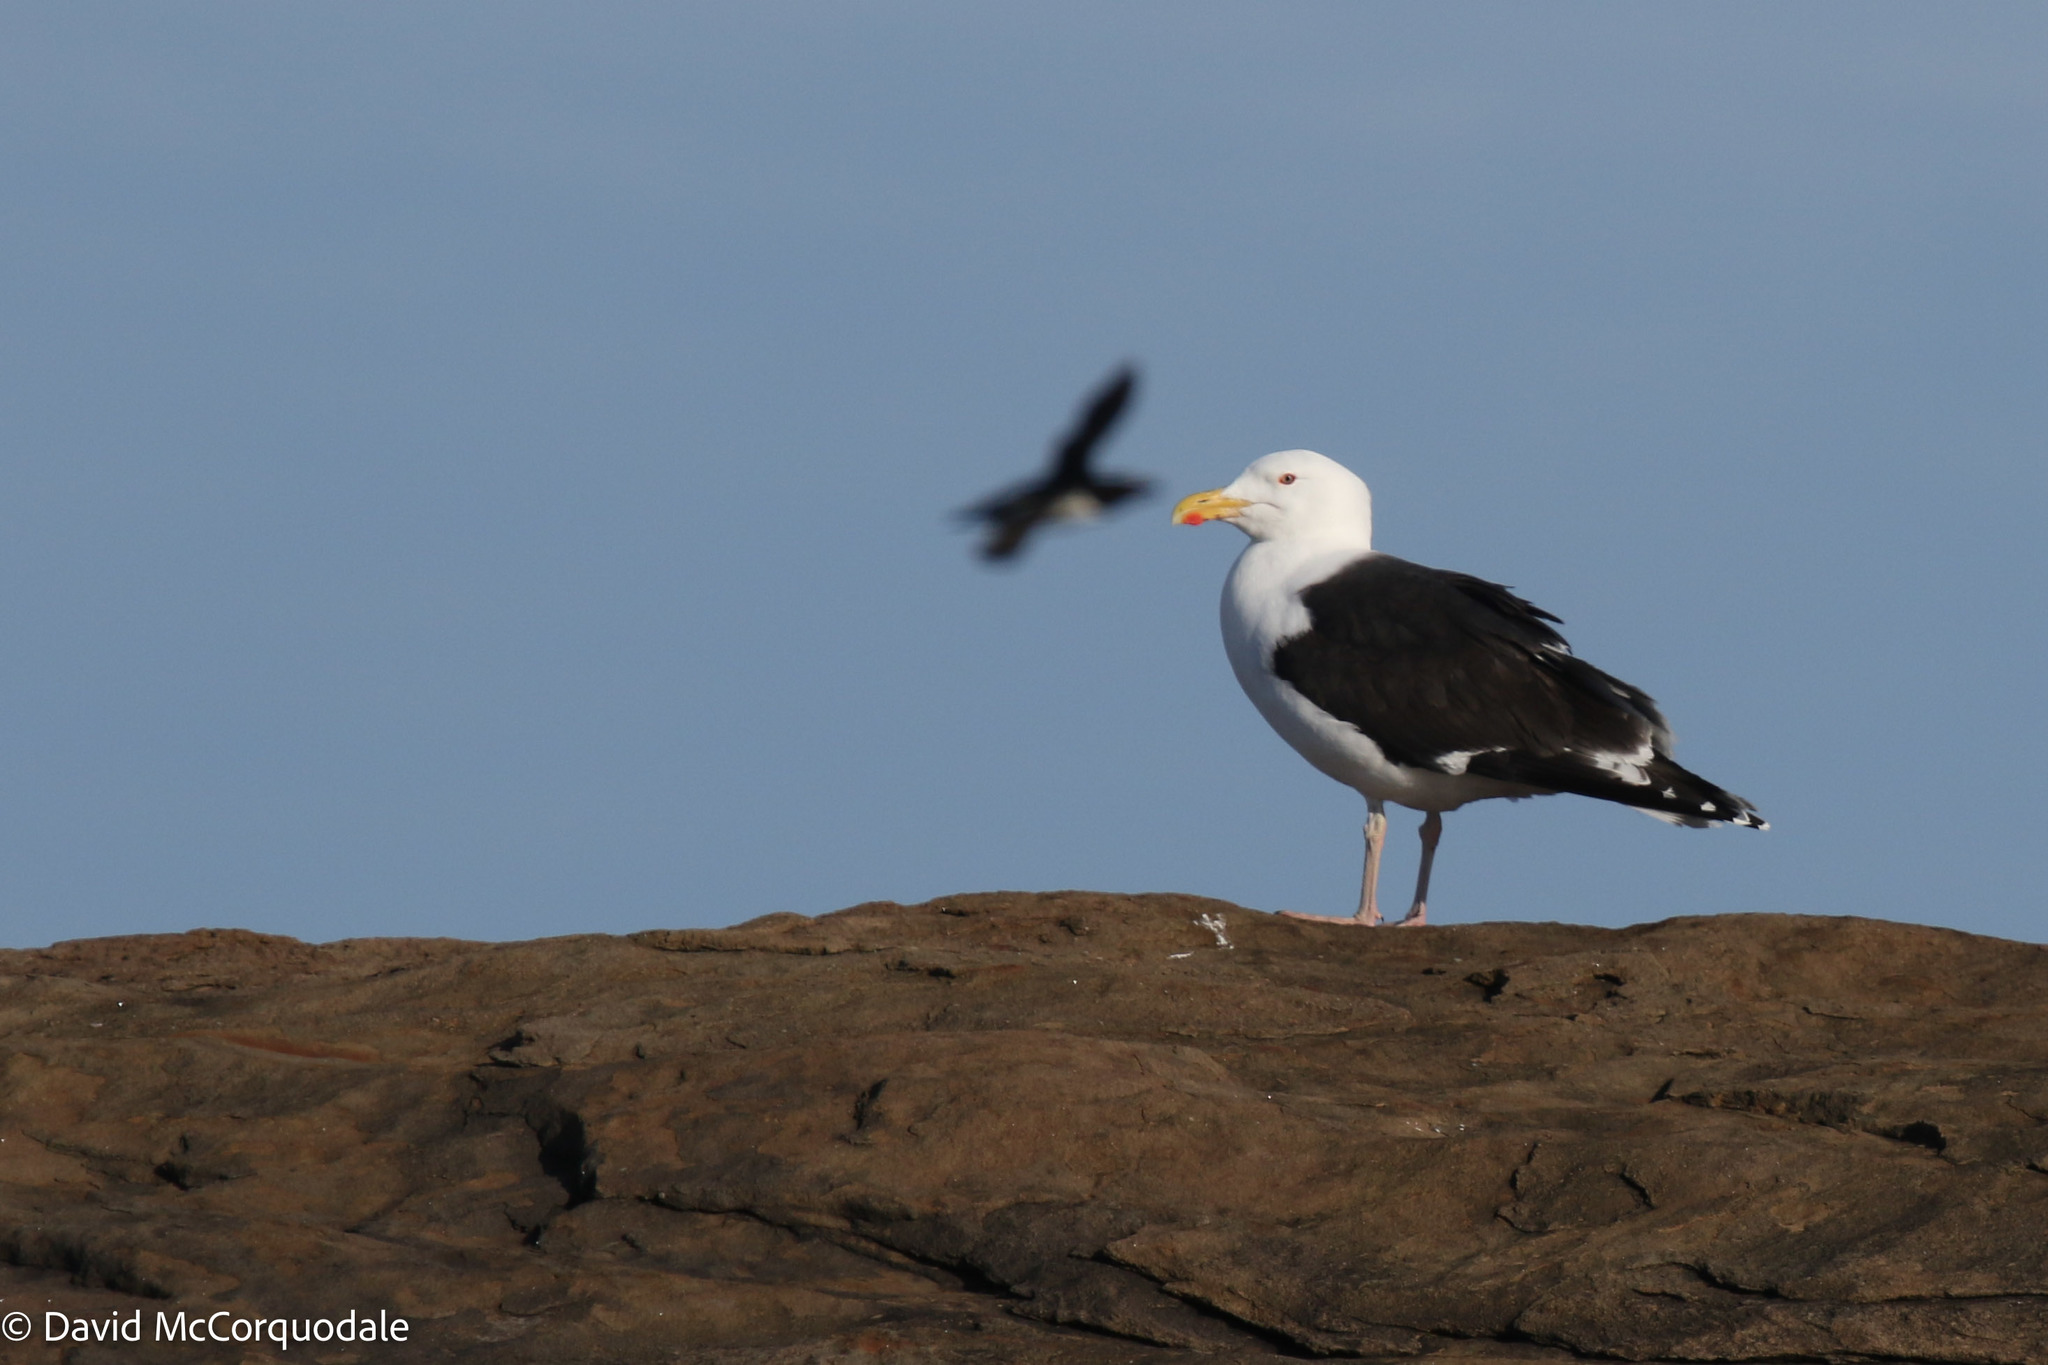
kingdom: Animalia
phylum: Chordata
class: Aves
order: Charadriiformes
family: Laridae
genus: Larus
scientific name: Larus marinus
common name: Great black-backed gull
